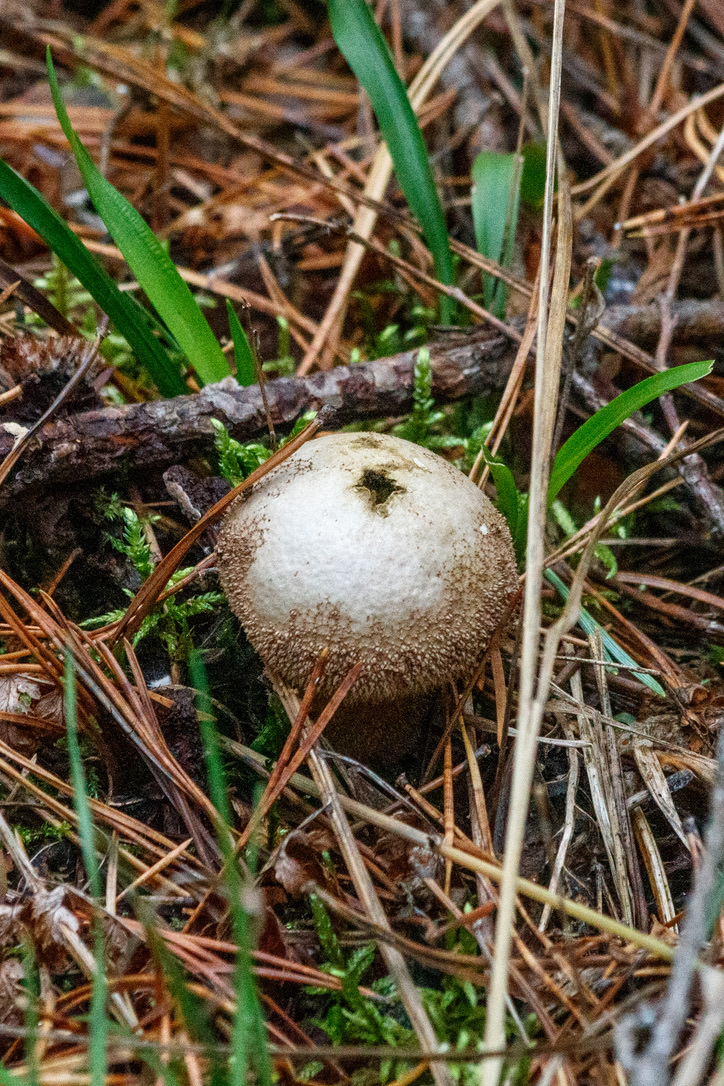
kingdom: Fungi
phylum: Basidiomycota
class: Agaricomycetes
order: Agaricales
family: Lycoperdaceae
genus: Lycoperdon
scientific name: Lycoperdon perlatum
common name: Common puffball
